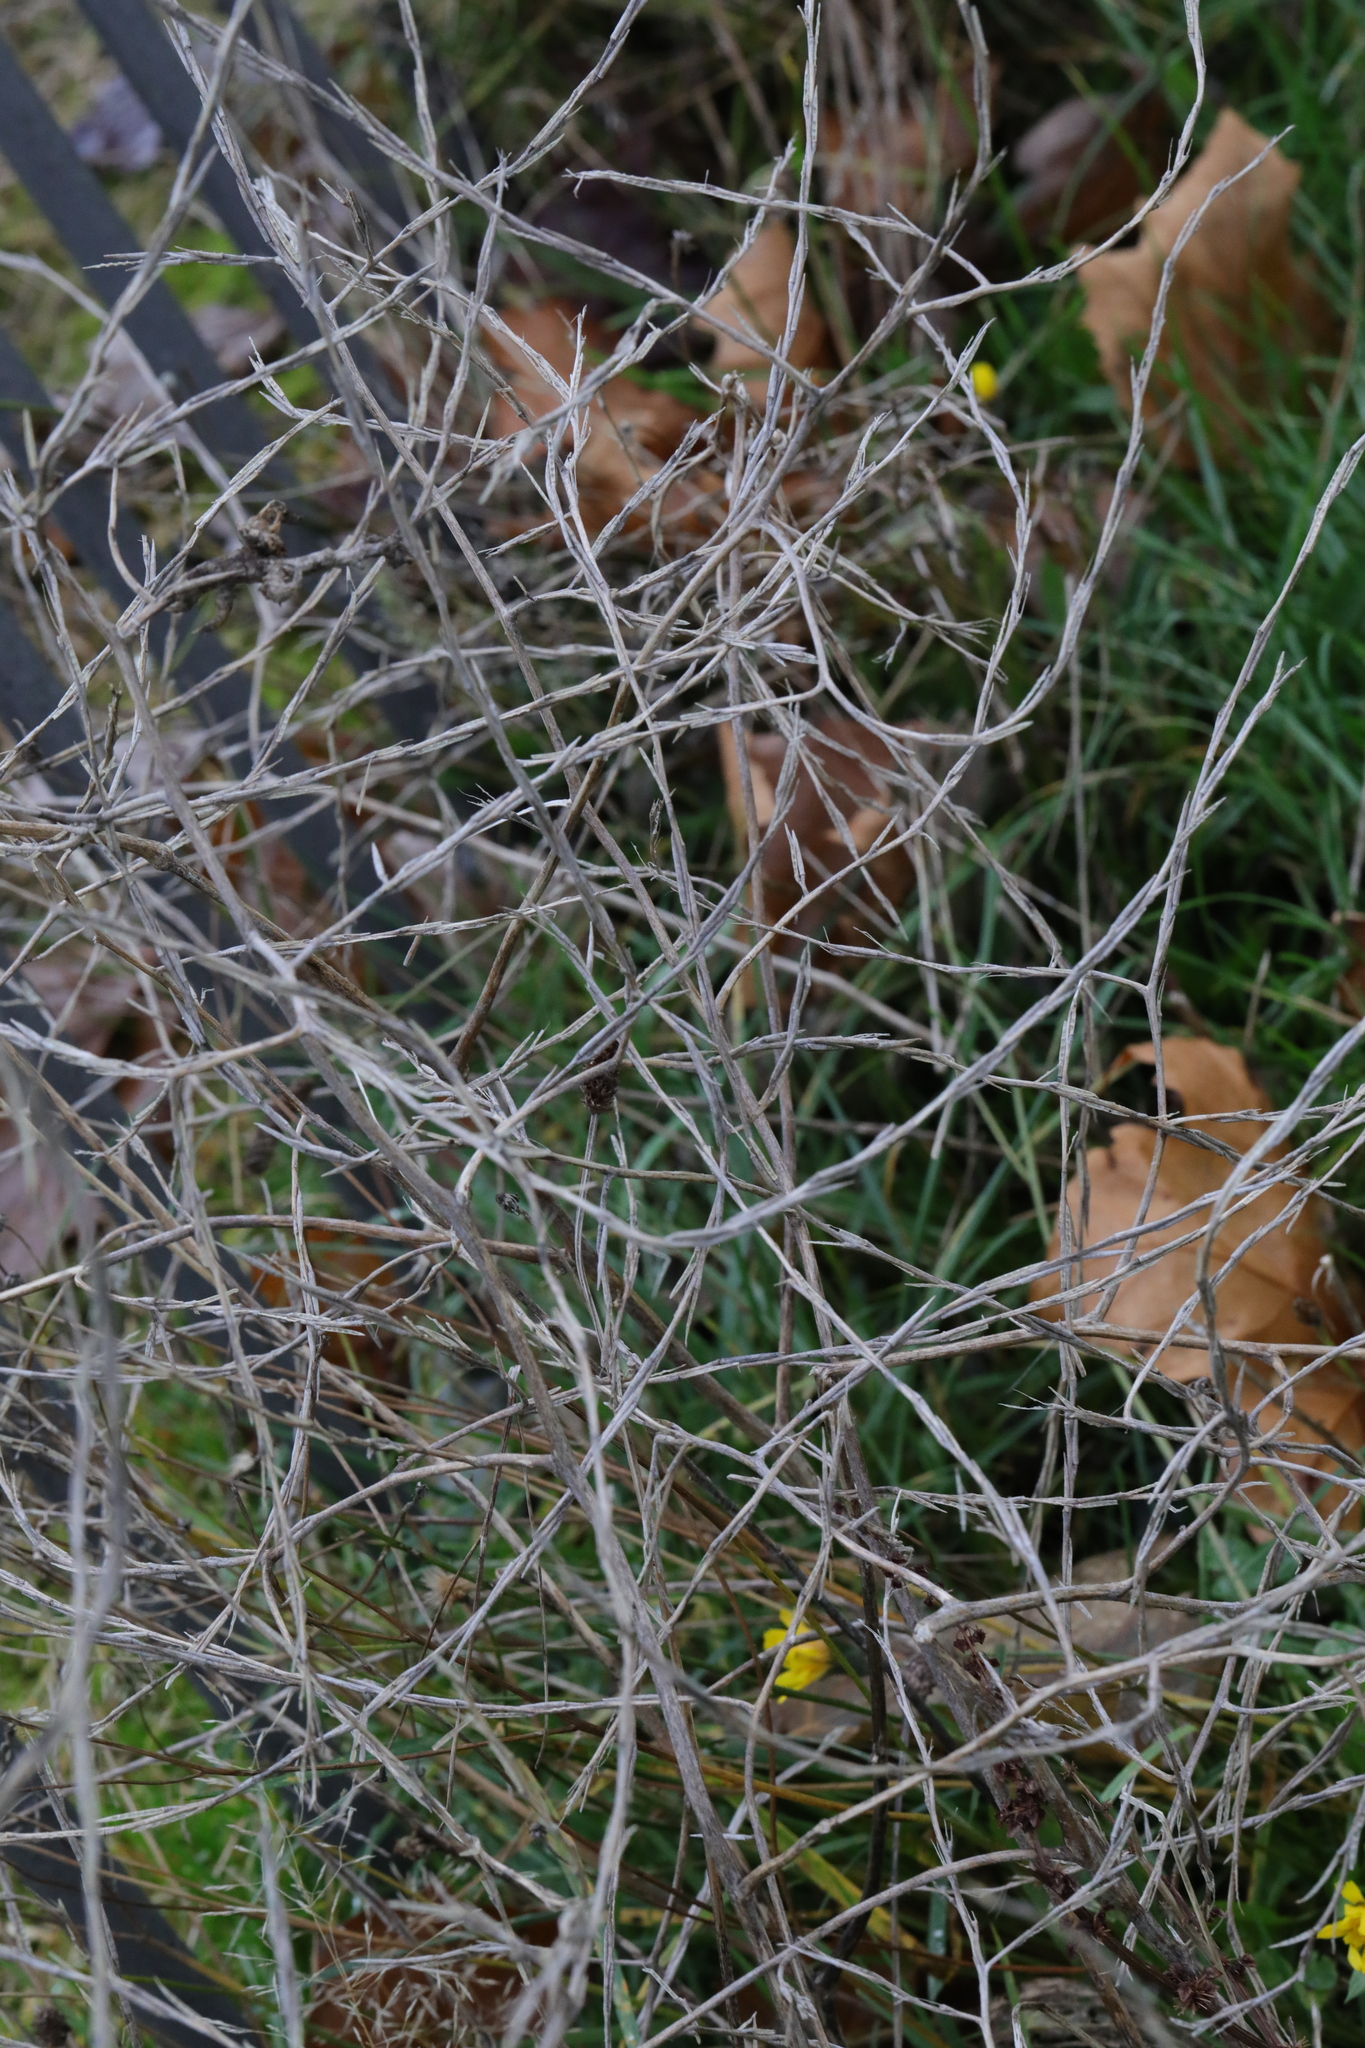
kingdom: Plantae
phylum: Tracheophyta
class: Magnoliopsida
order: Brassicales
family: Brassicaceae
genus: Sisymbrium
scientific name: Sisymbrium officinale
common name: Hedge mustard
